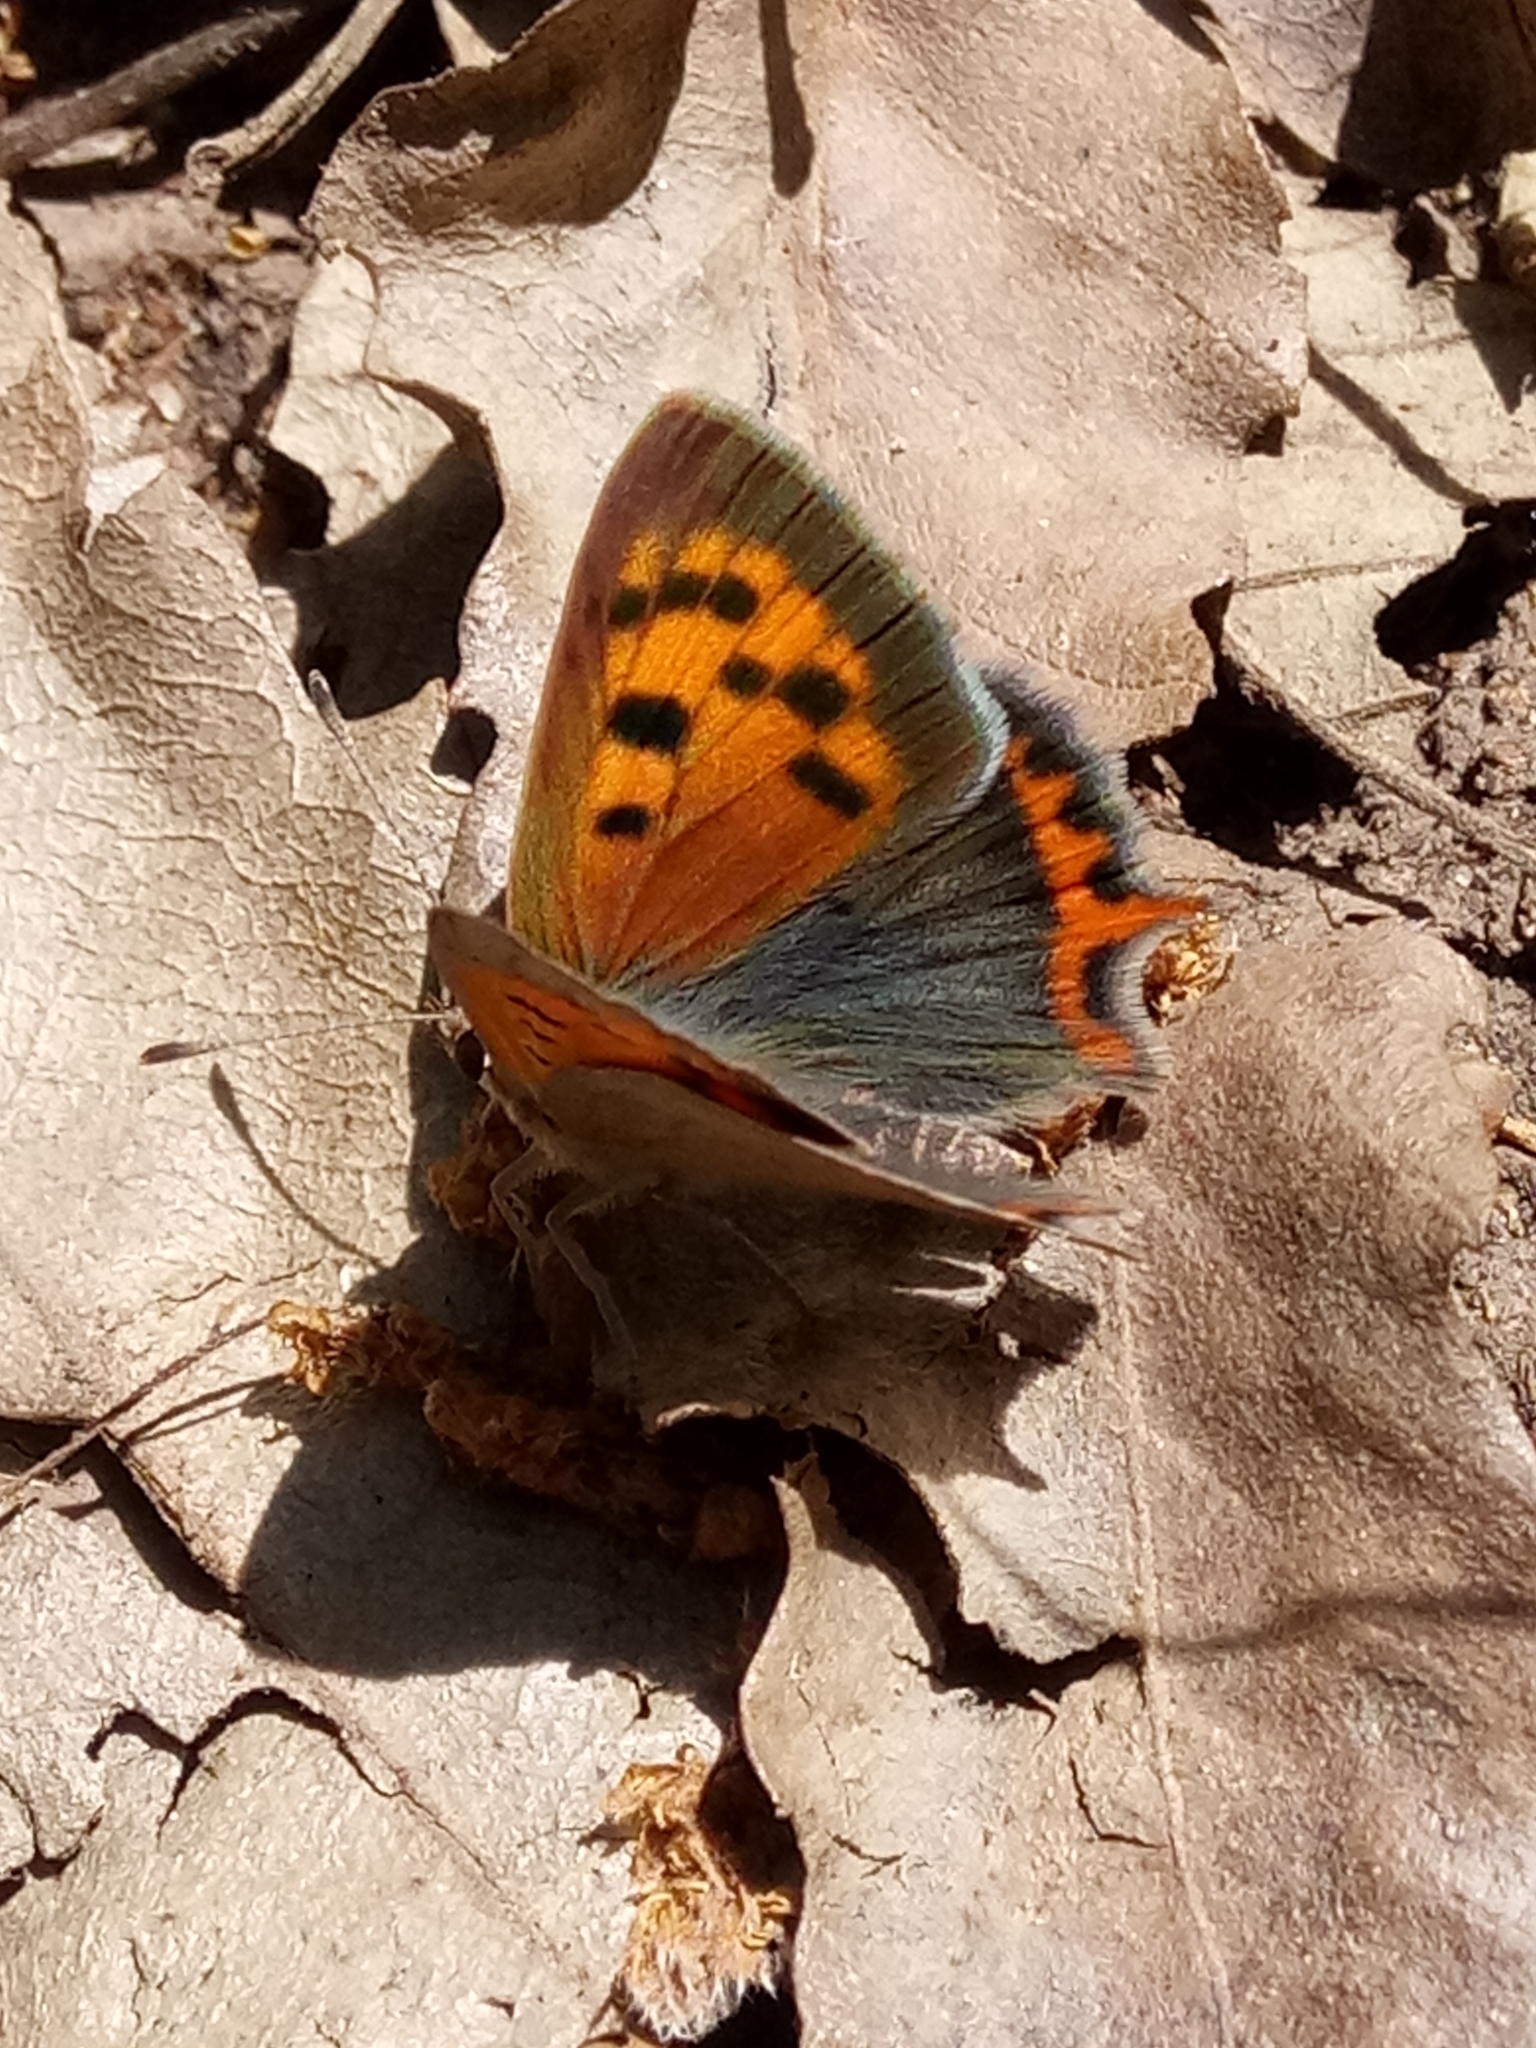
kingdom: Animalia
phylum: Arthropoda
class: Insecta
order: Lepidoptera
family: Lycaenidae
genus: Lycaena
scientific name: Lycaena phlaeas
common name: Small copper
